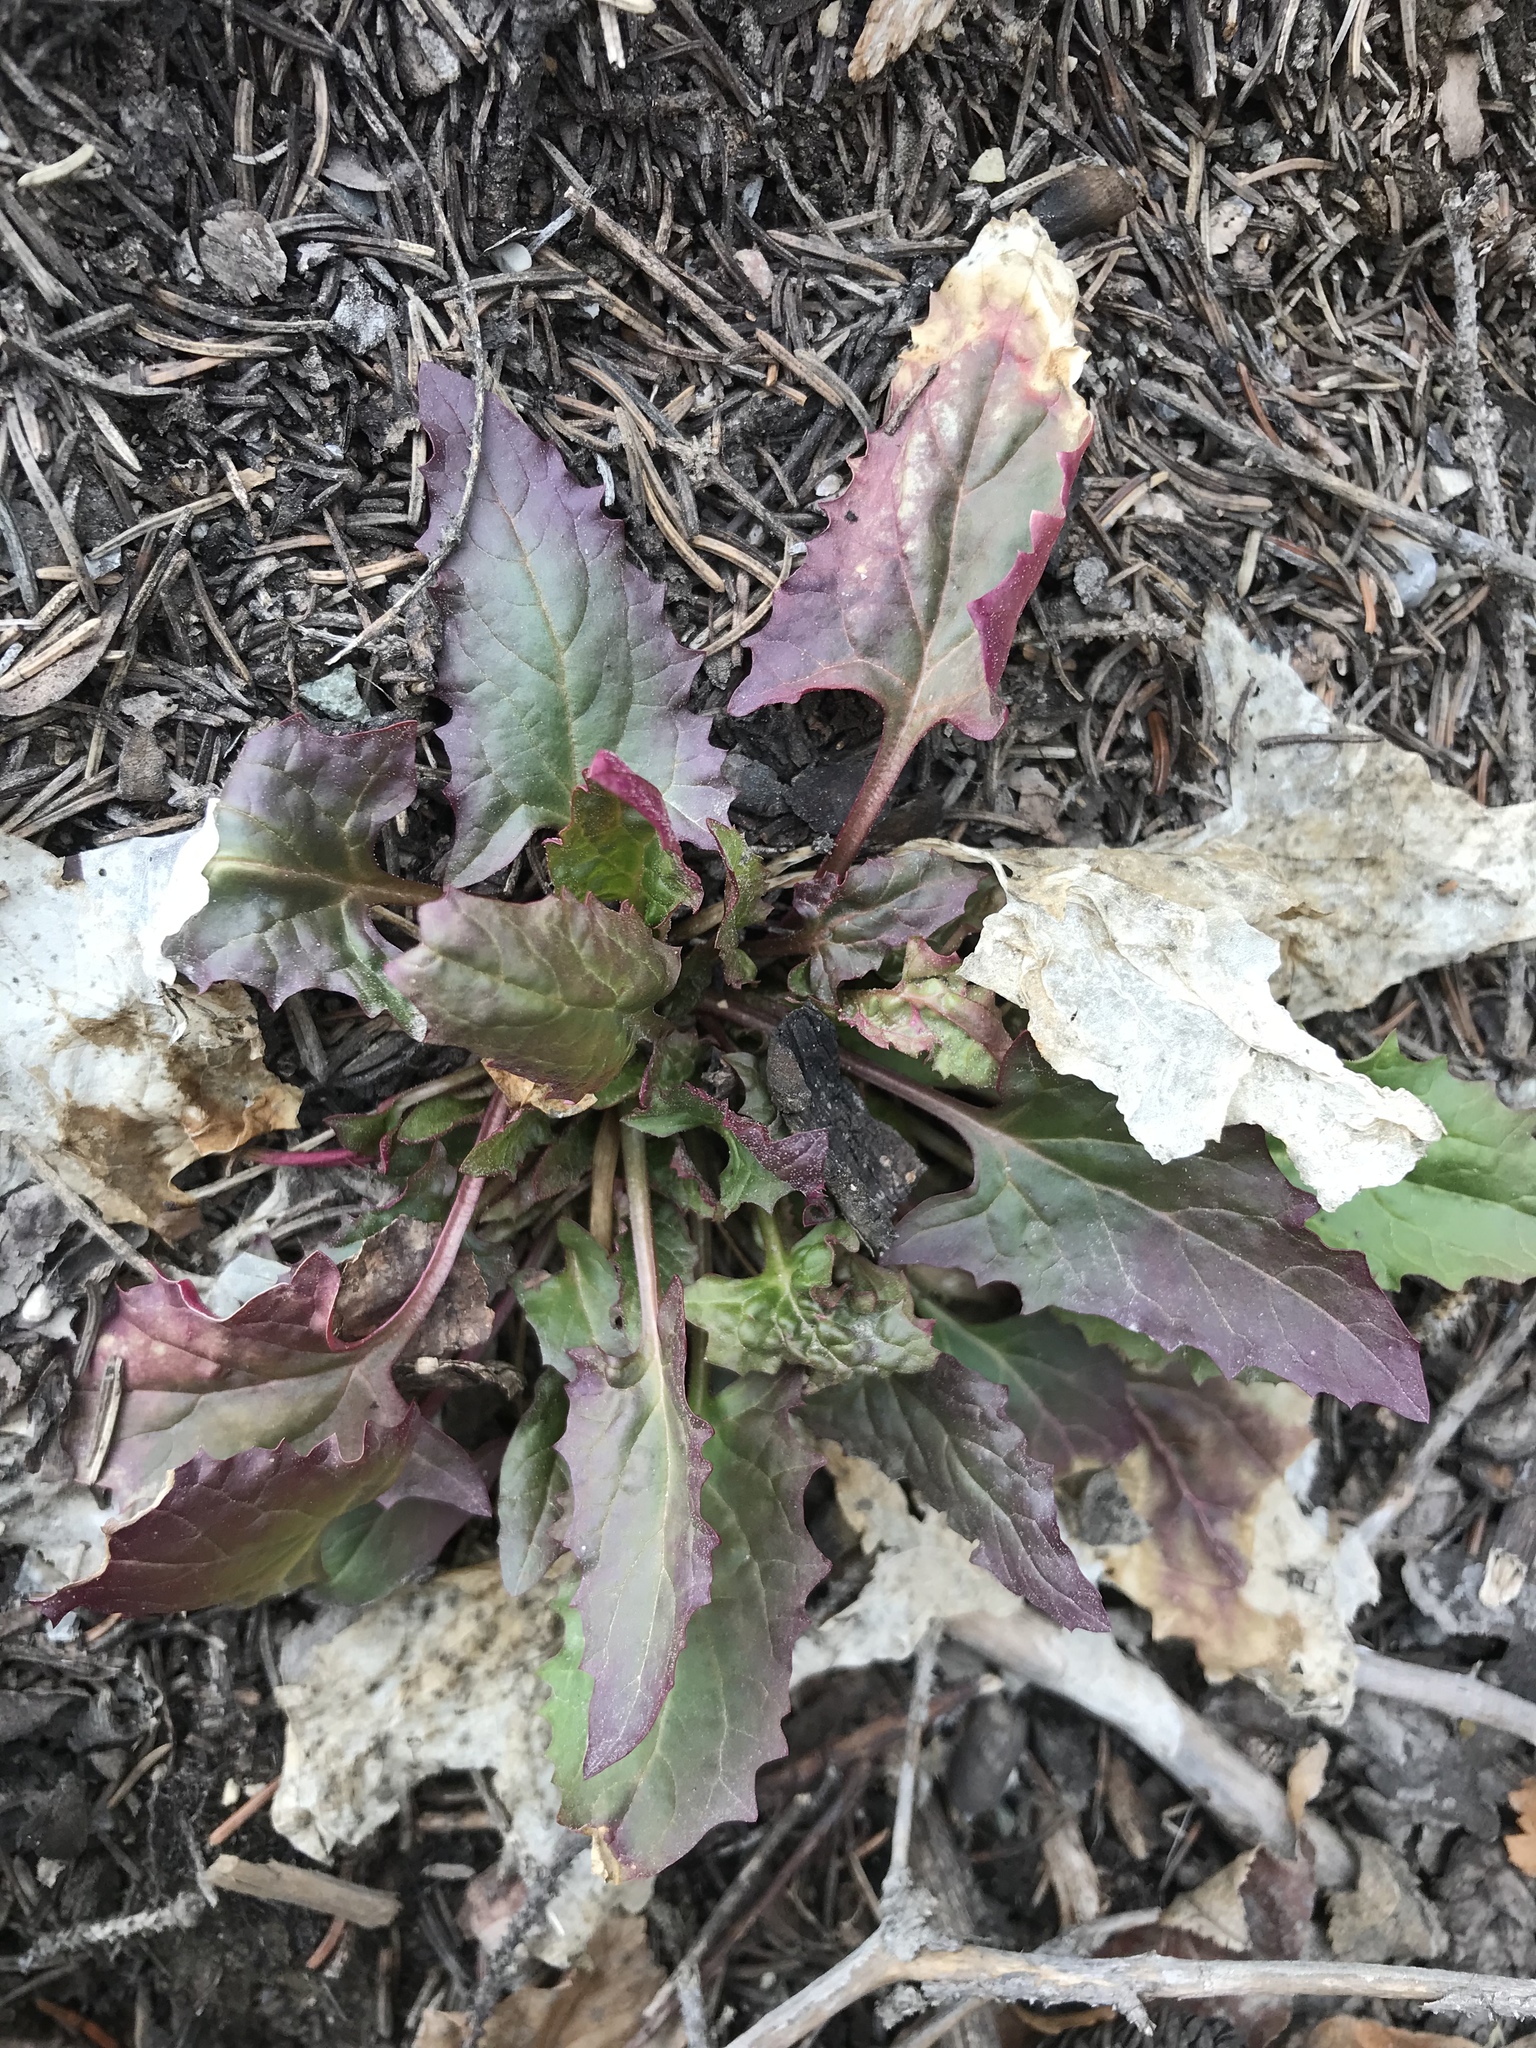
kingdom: Plantae
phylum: Tracheophyta
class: Magnoliopsida
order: Caryophyllales
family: Amaranthaceae
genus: Blitum
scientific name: Blitum capitatum
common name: Strawberry-blight
